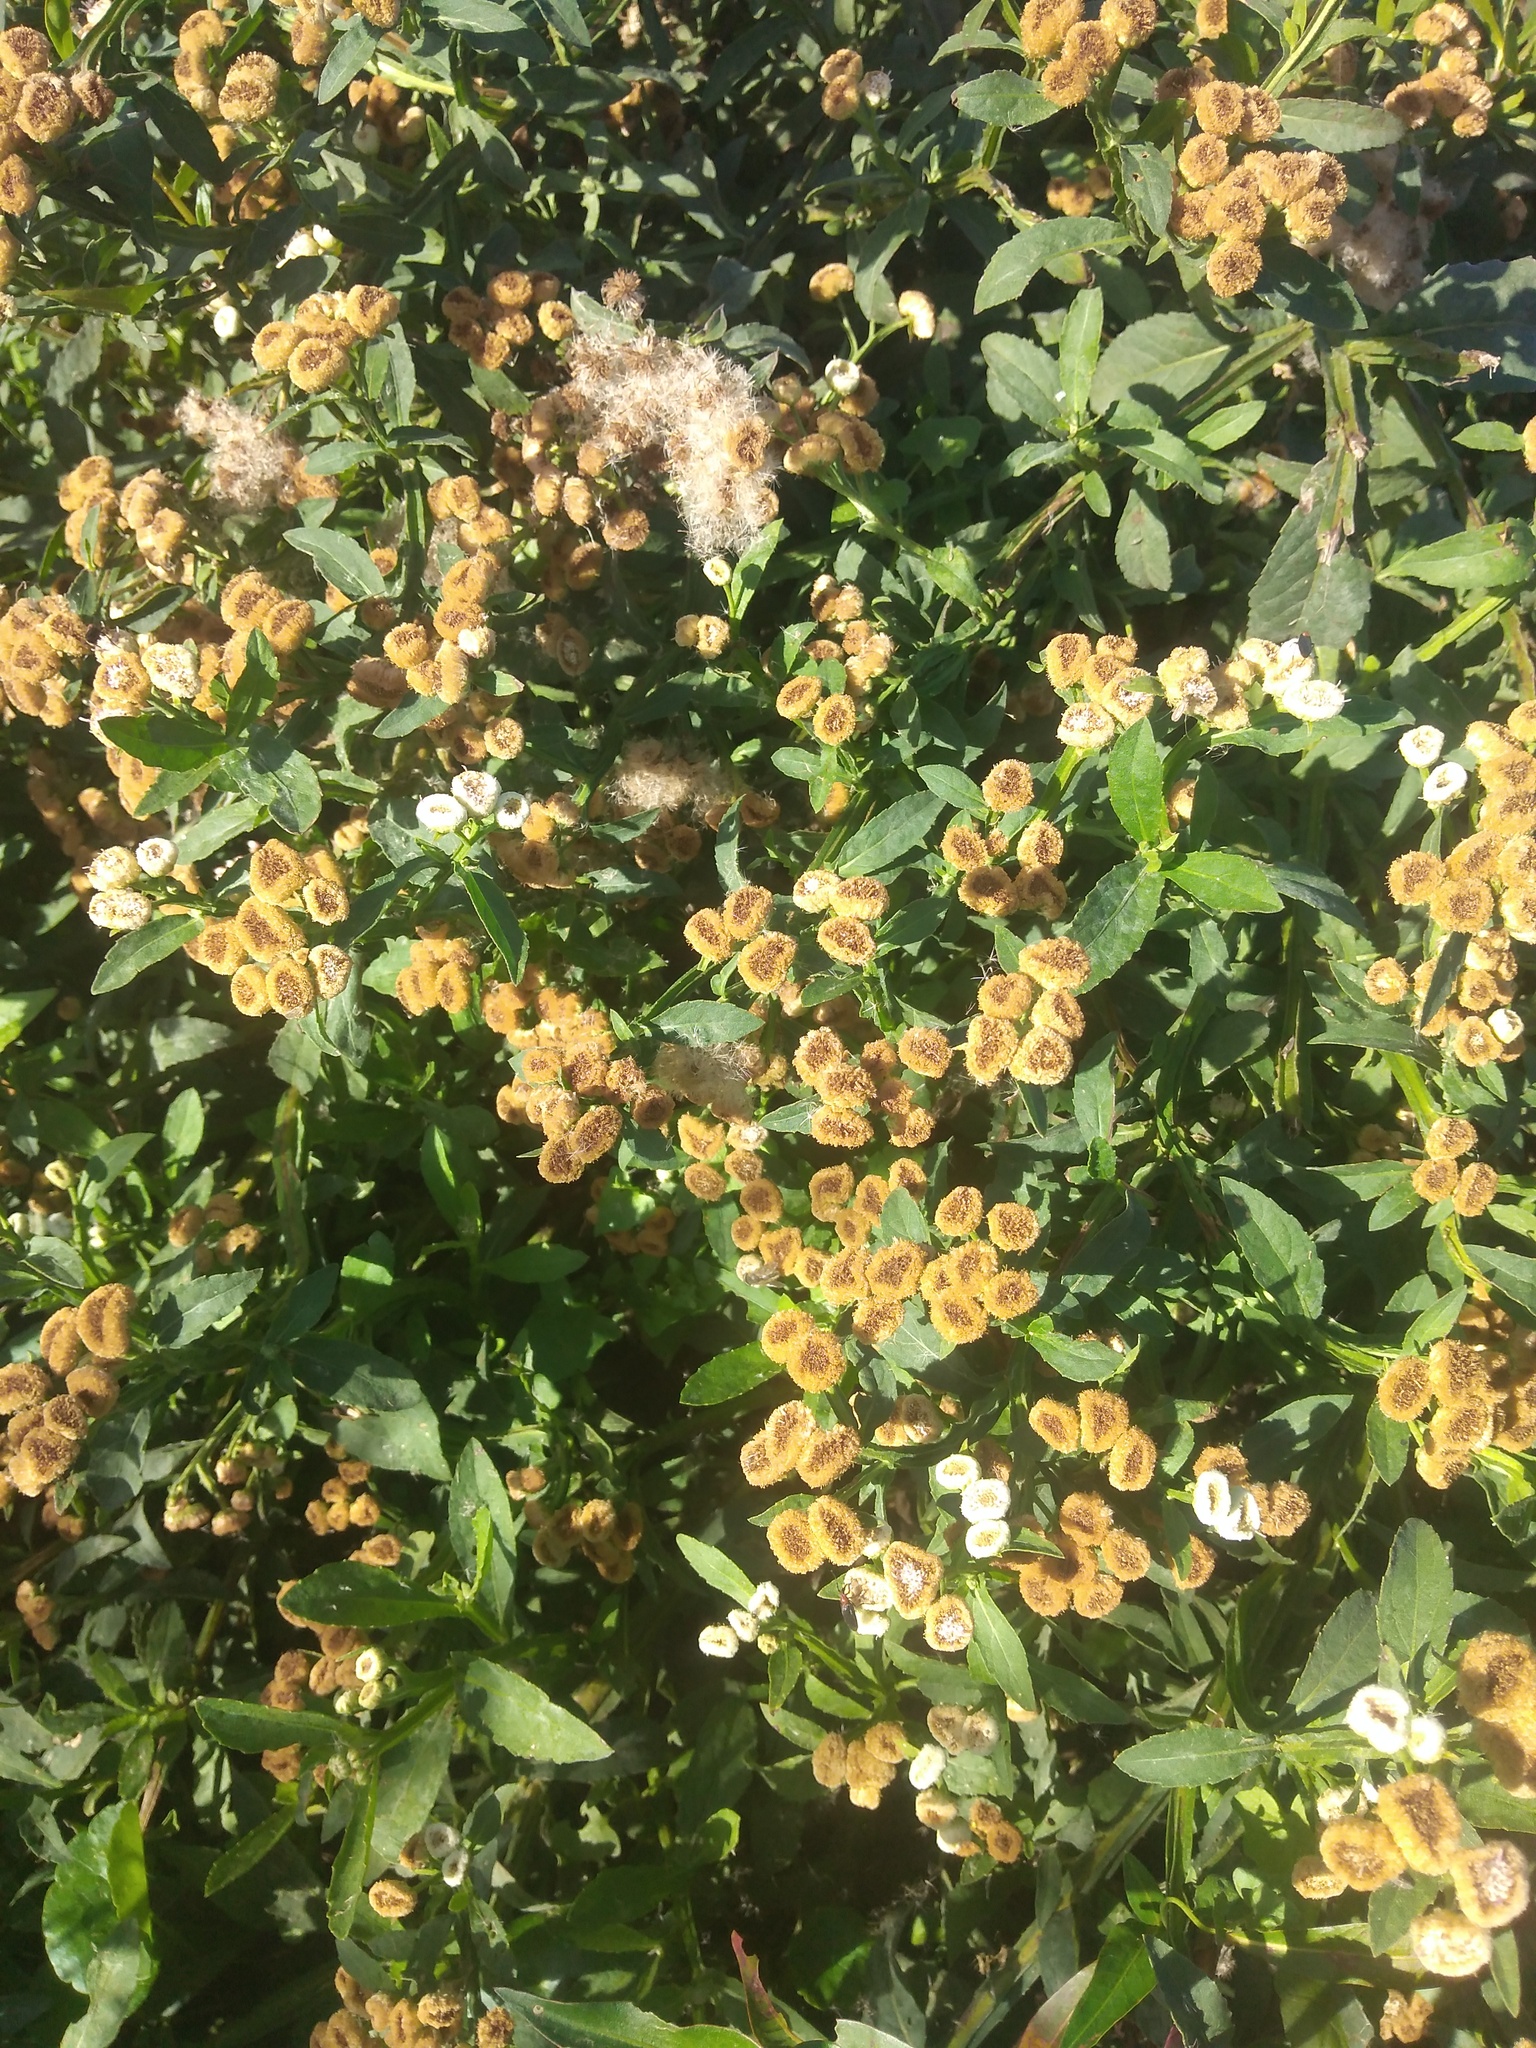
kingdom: Plantae
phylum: Tracheophyta
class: Magnoliopsida
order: Asterales
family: Asteraceae
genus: Pluchea
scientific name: Pluchea sagittalis
